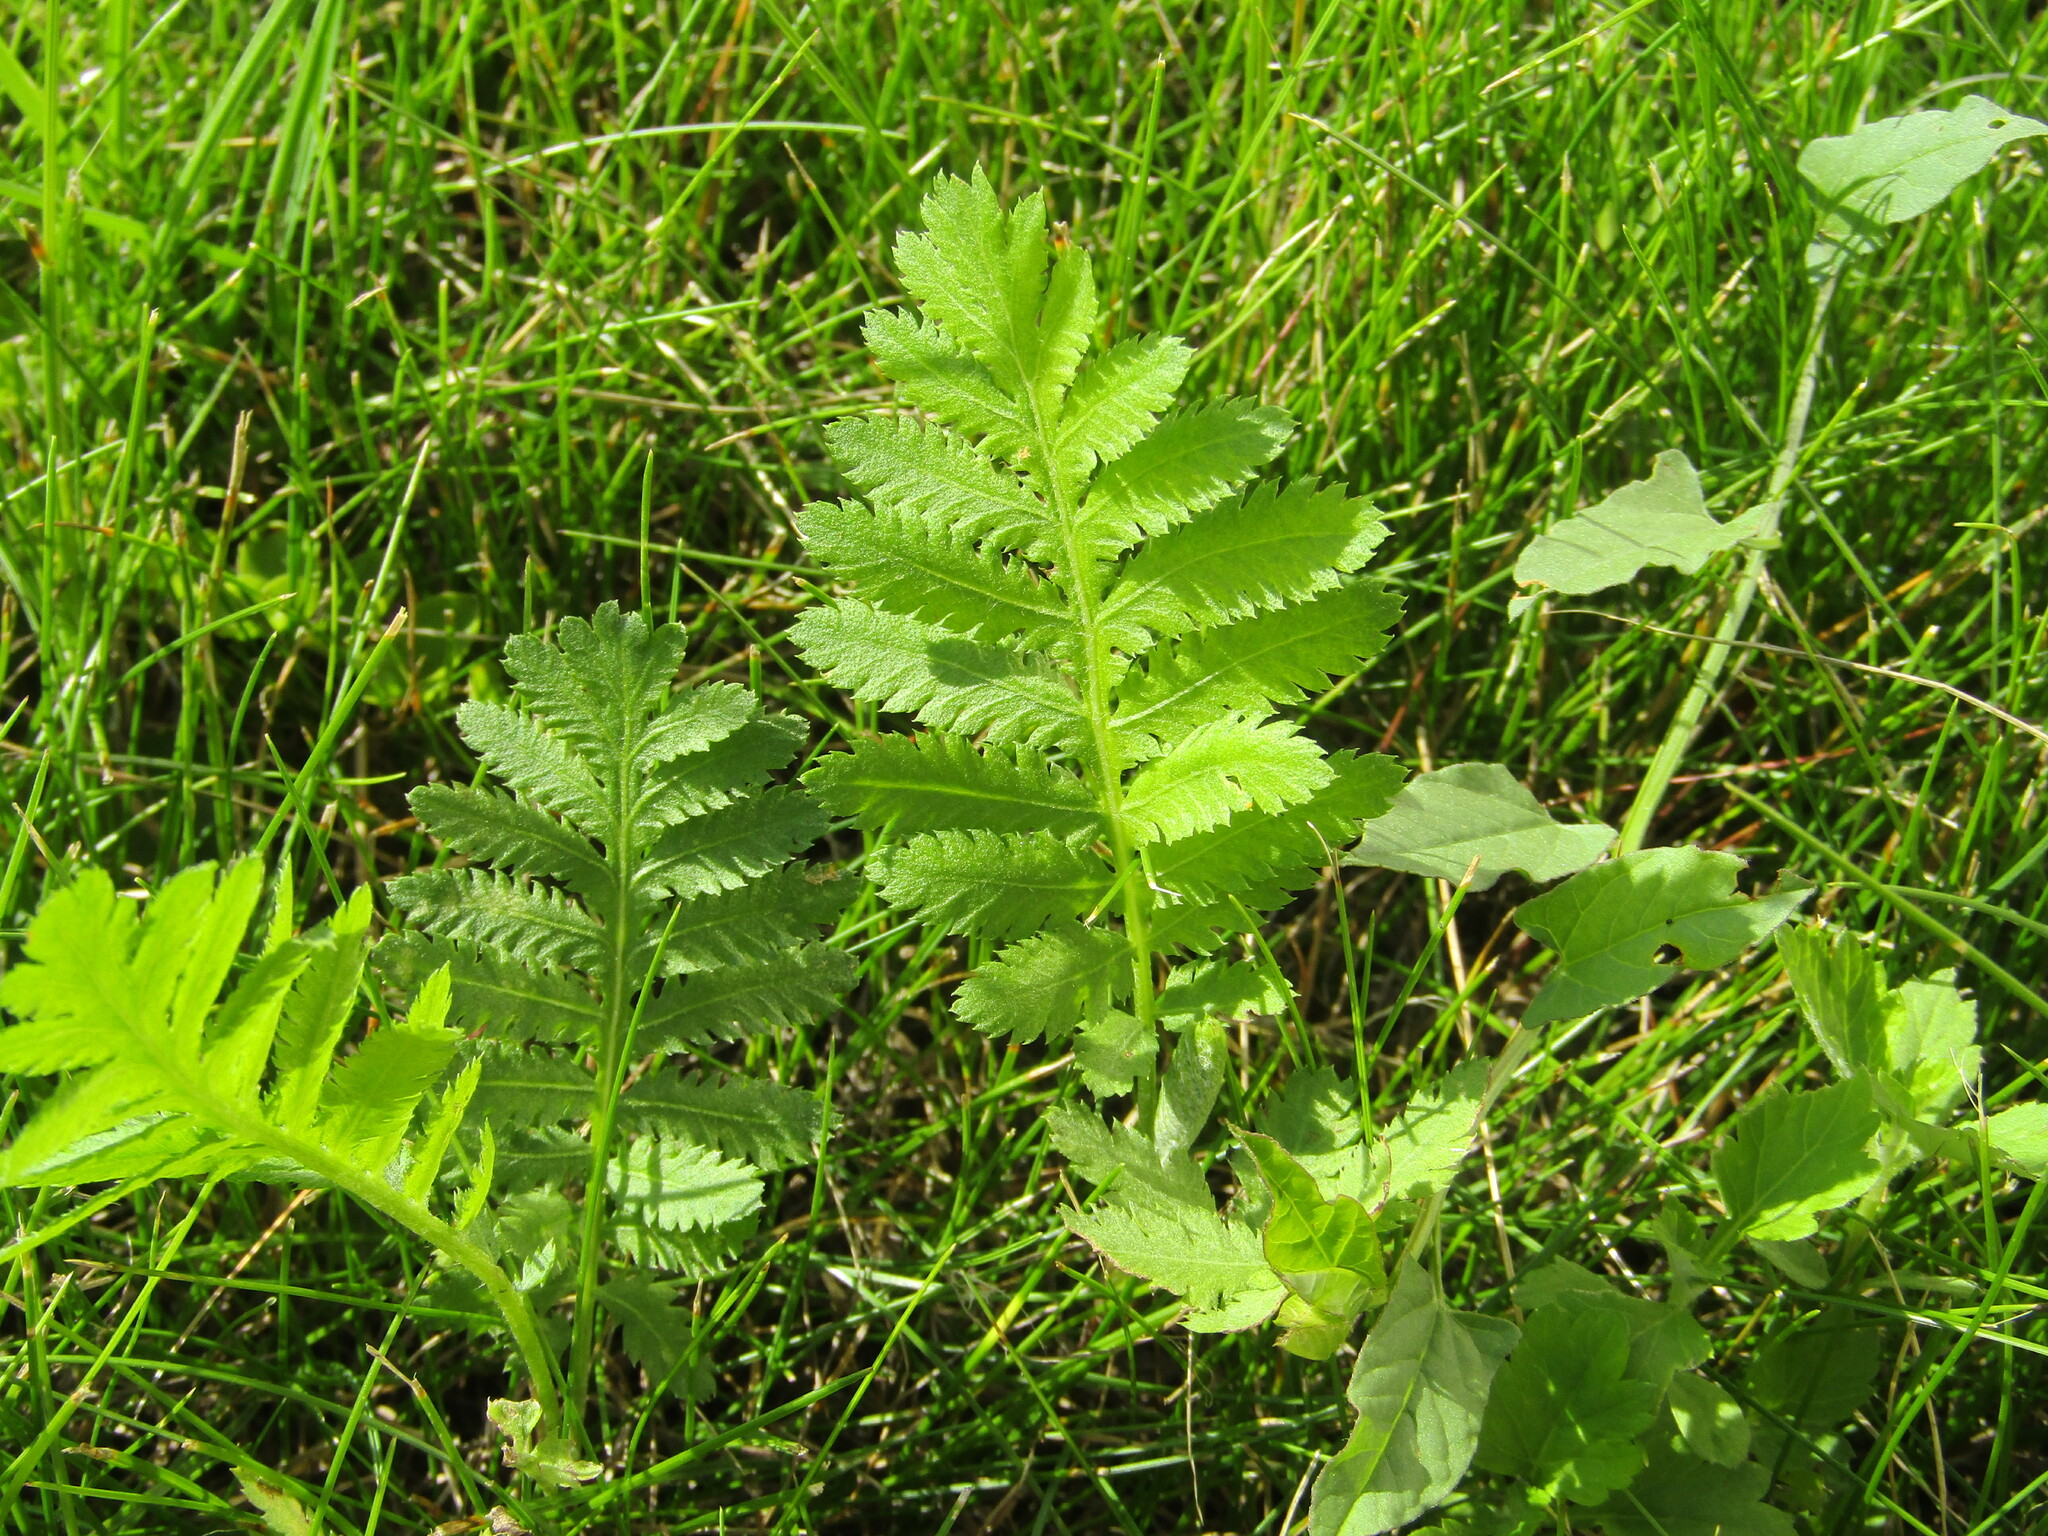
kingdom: Plantae
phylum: Tracheophyta
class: Magnoliopsida
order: Asterales
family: Asteraceae
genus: Tanacetum
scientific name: Tanacetum vulgare
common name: Common tansy
